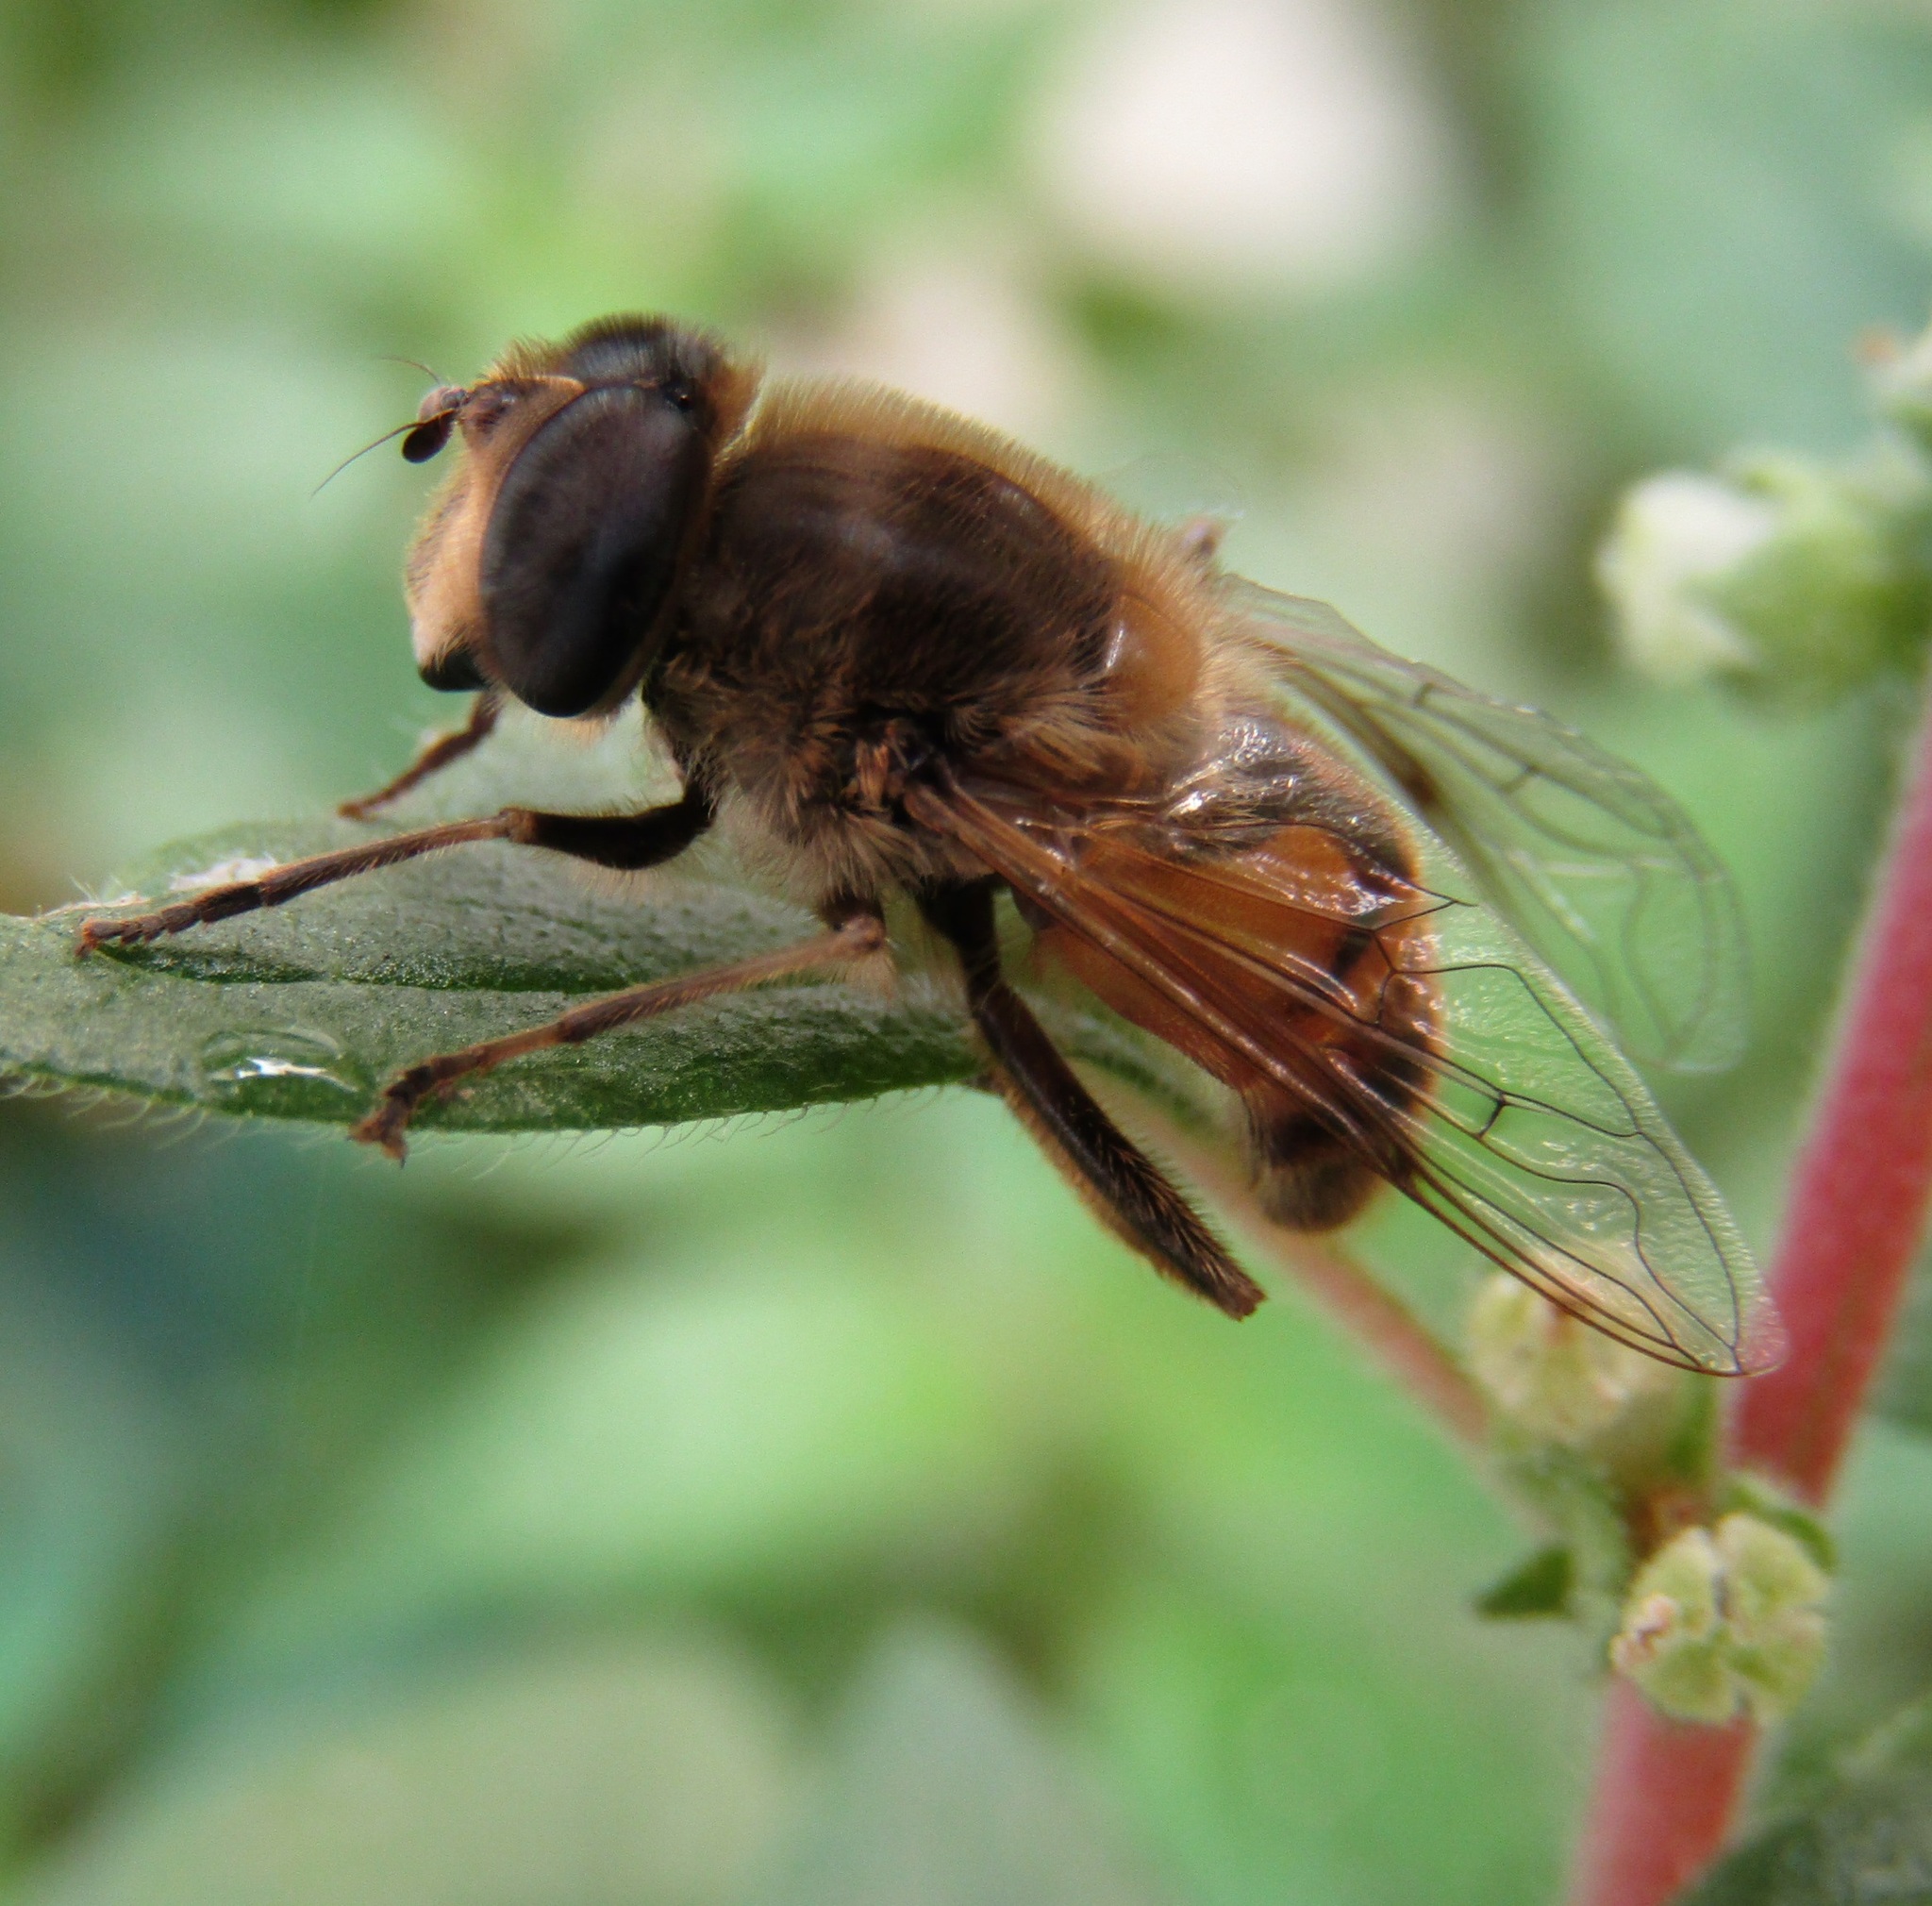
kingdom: Animalia
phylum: Arthropoda
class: Insecta
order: Diptera
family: Syrphidae
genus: Eristalis
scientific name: Eristalis tenax
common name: Drone fly
